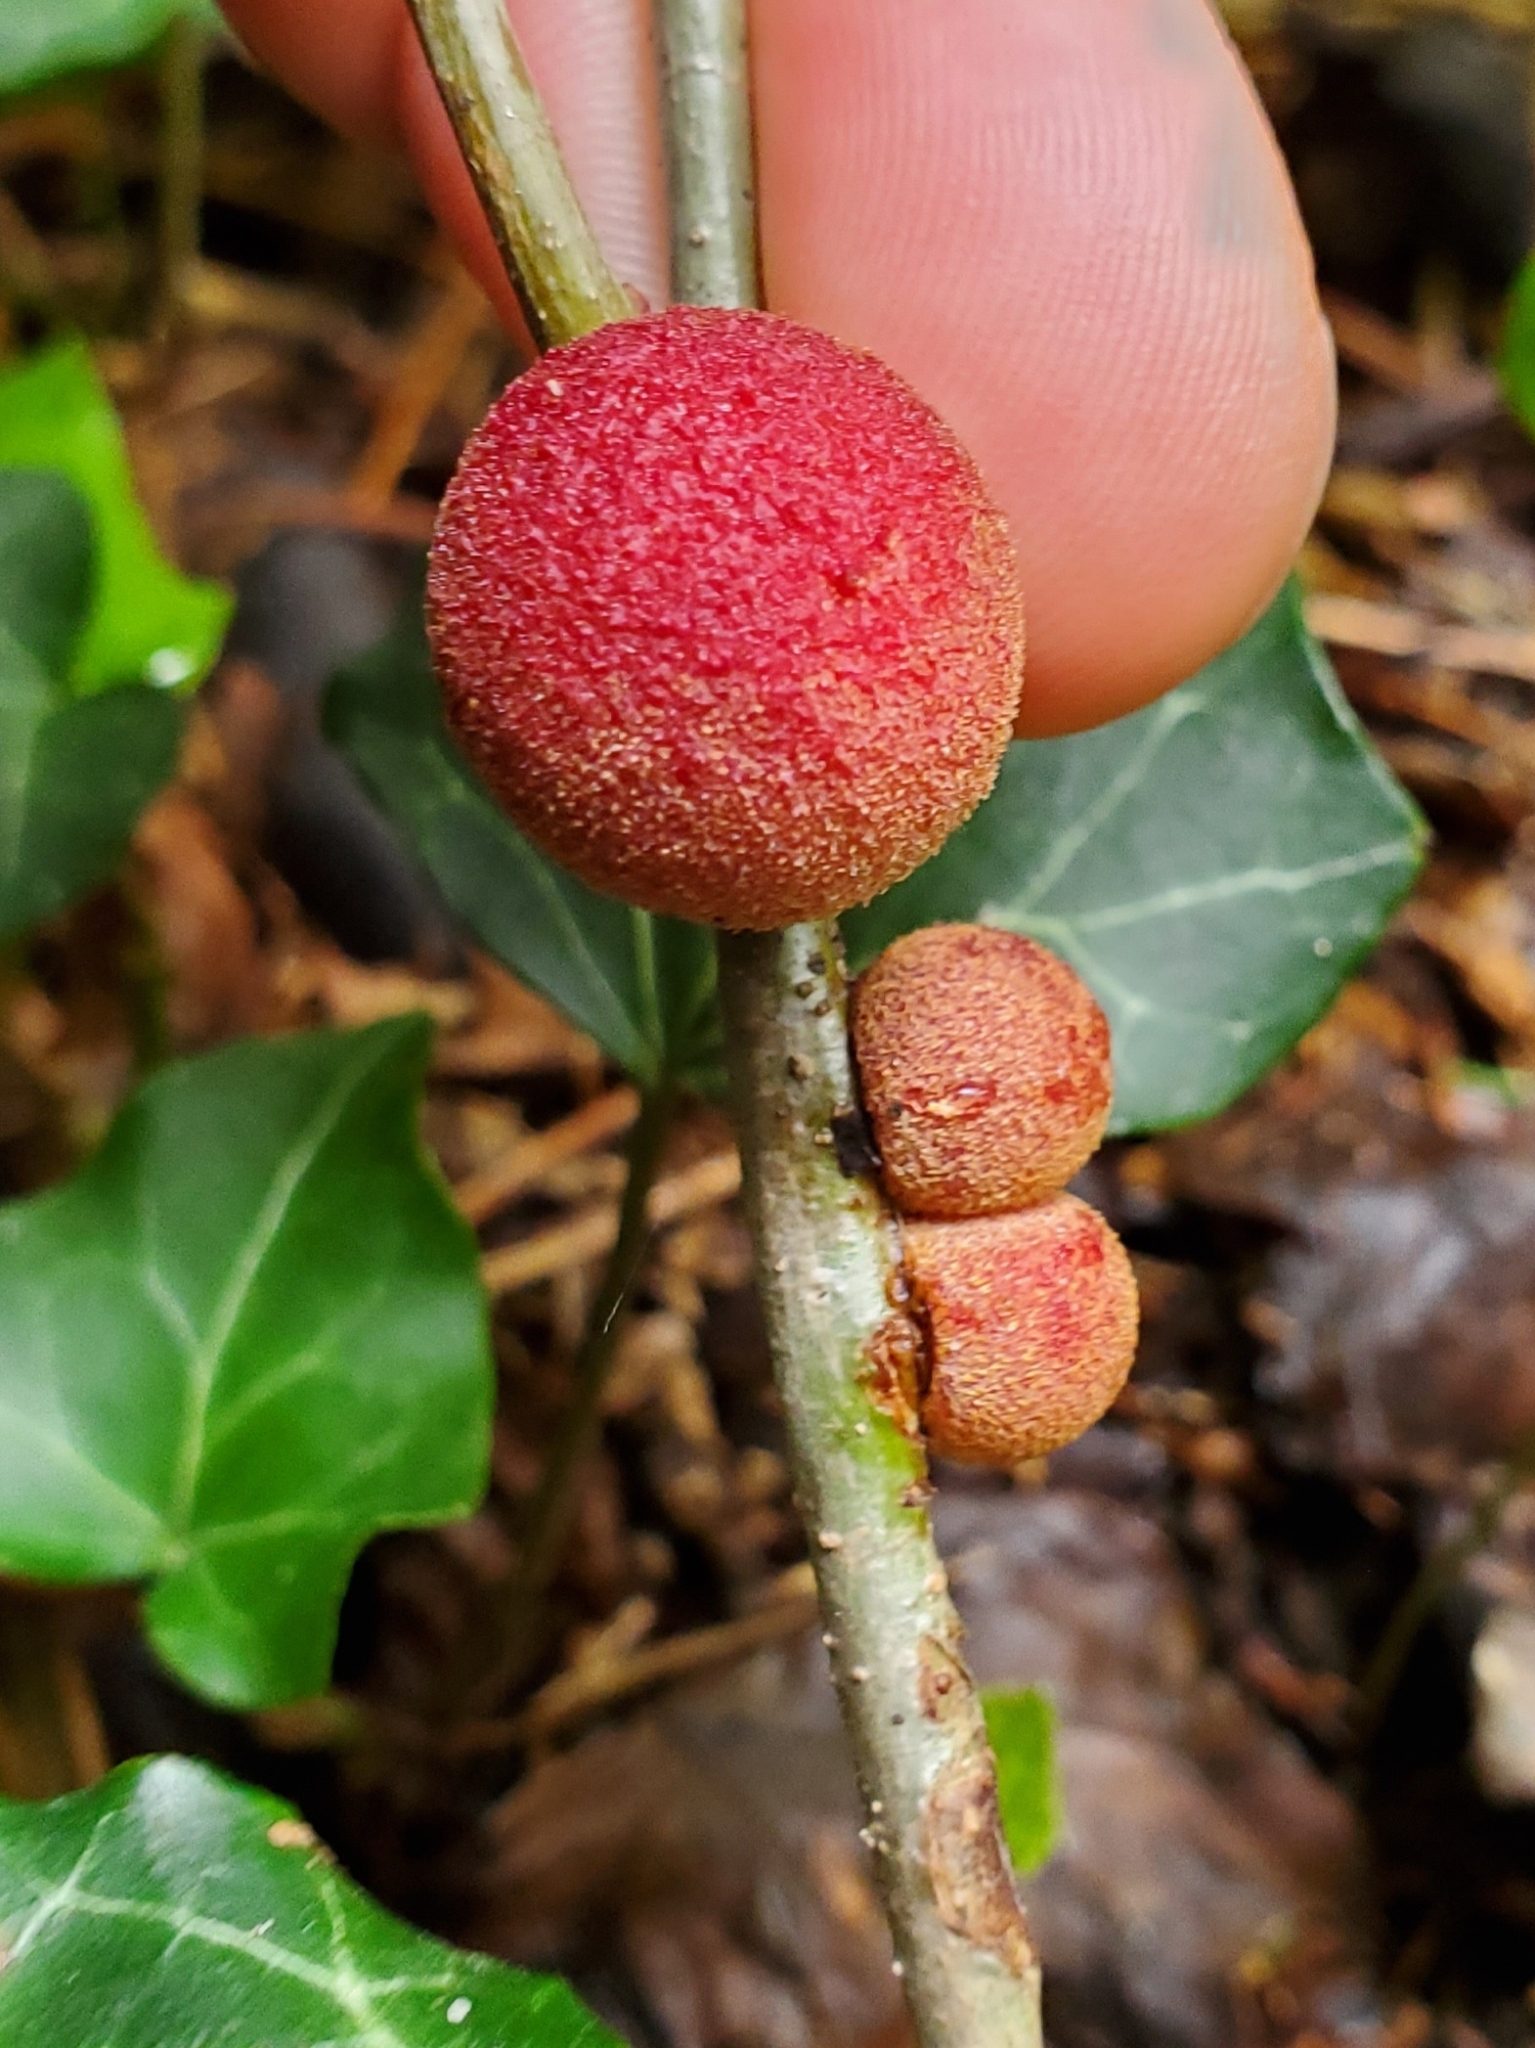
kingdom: Animalia
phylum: Arthropoda
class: Insecta
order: Hymenoptera
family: Cynipidae
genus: Disholcaspis
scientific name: Disholcaspis
